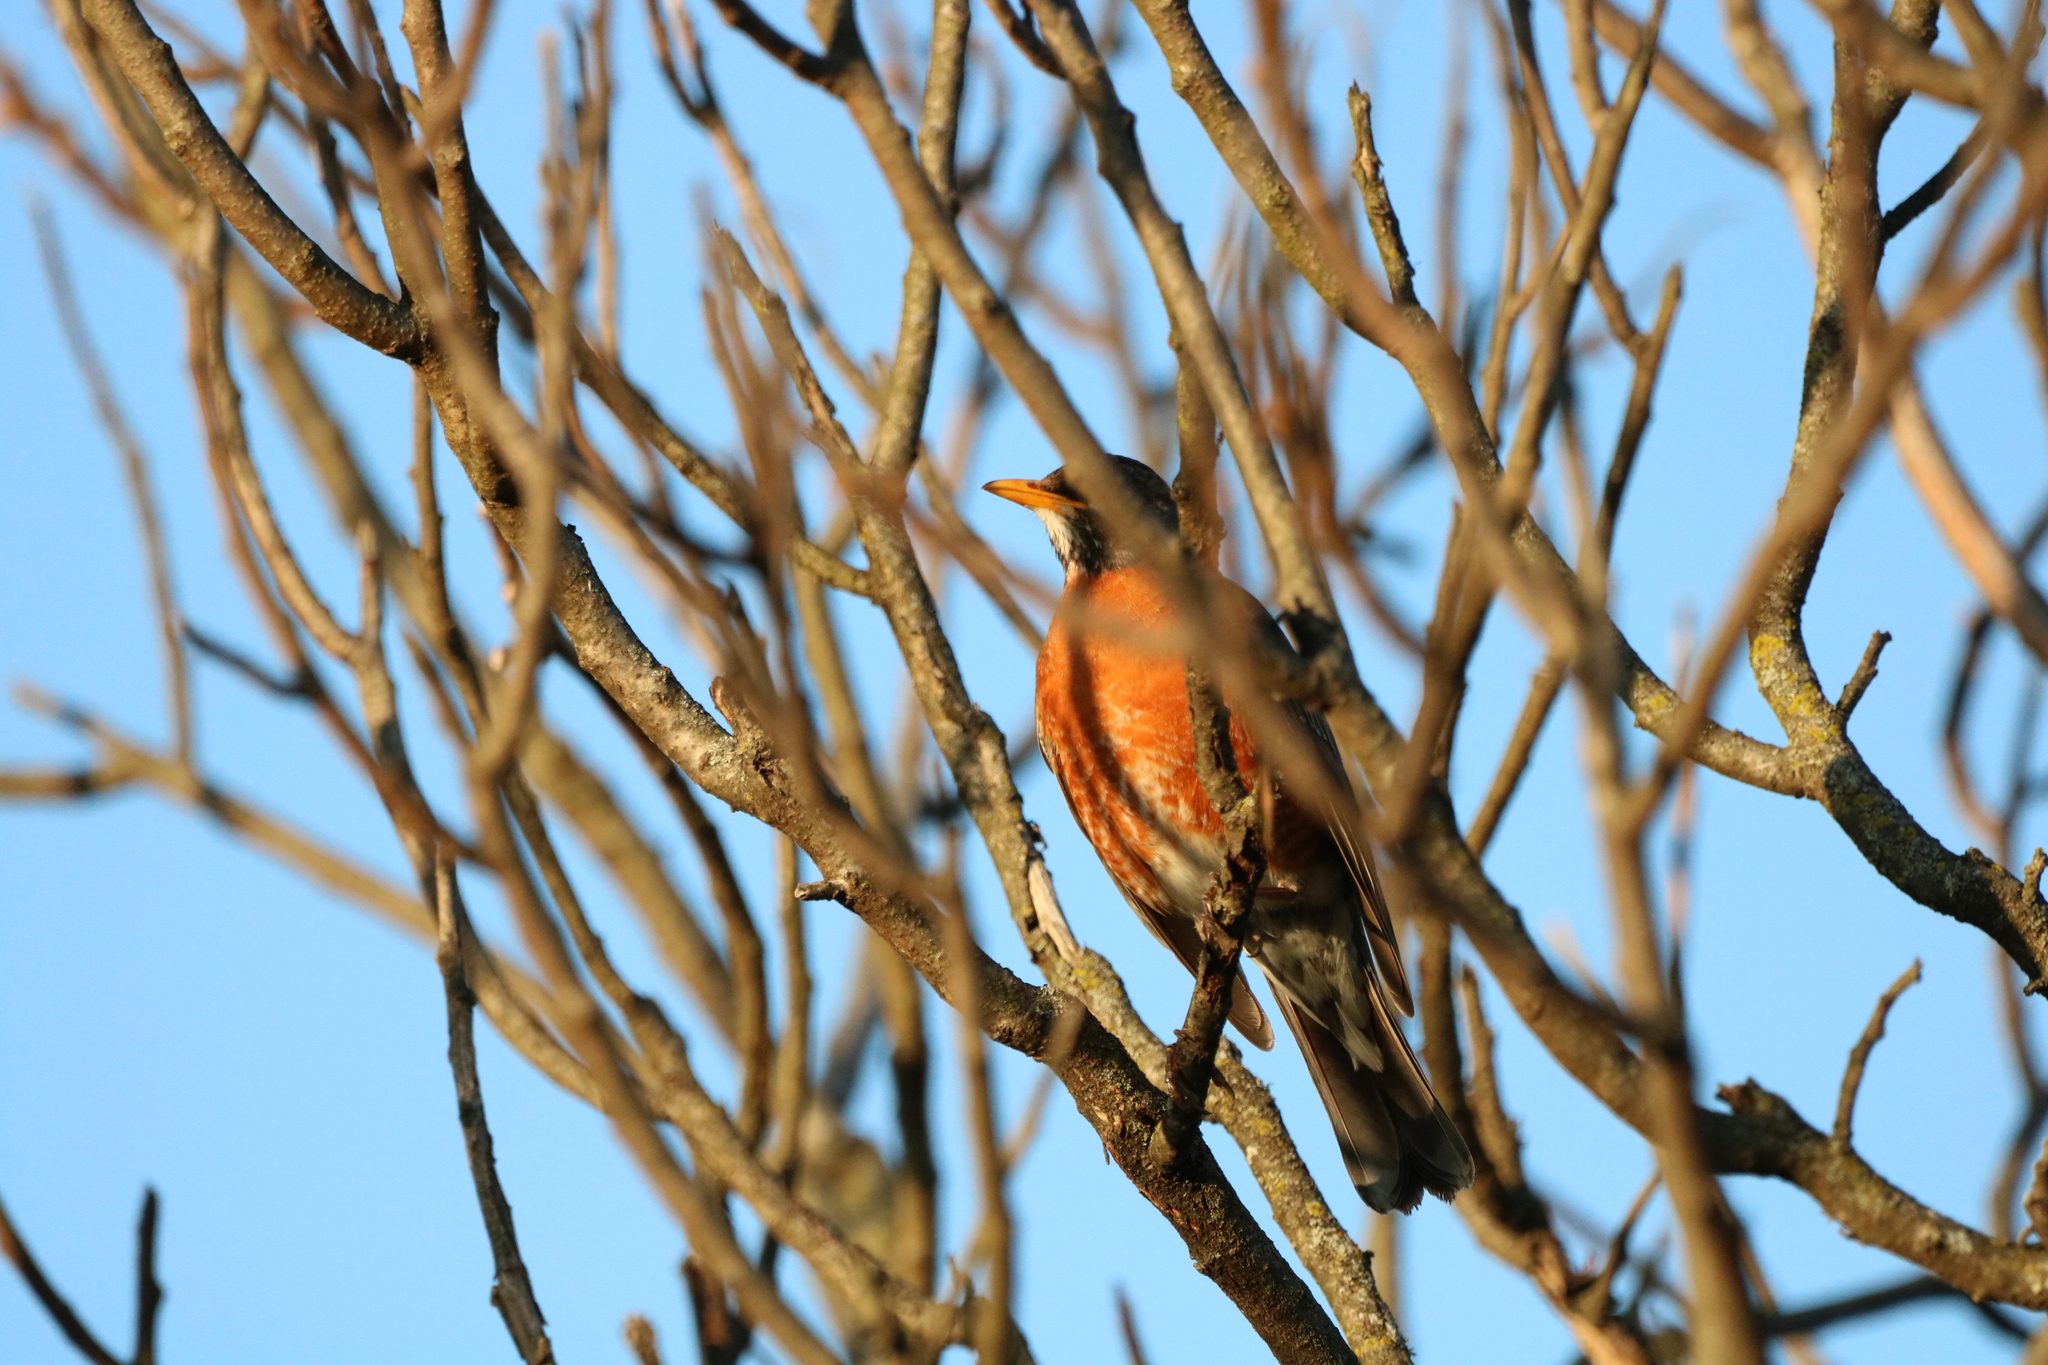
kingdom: Animalia
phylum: Chordata
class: Aves
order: Passeriformes
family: Turdidae
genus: Turdus
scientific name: Turdus migratorius
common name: American robin
